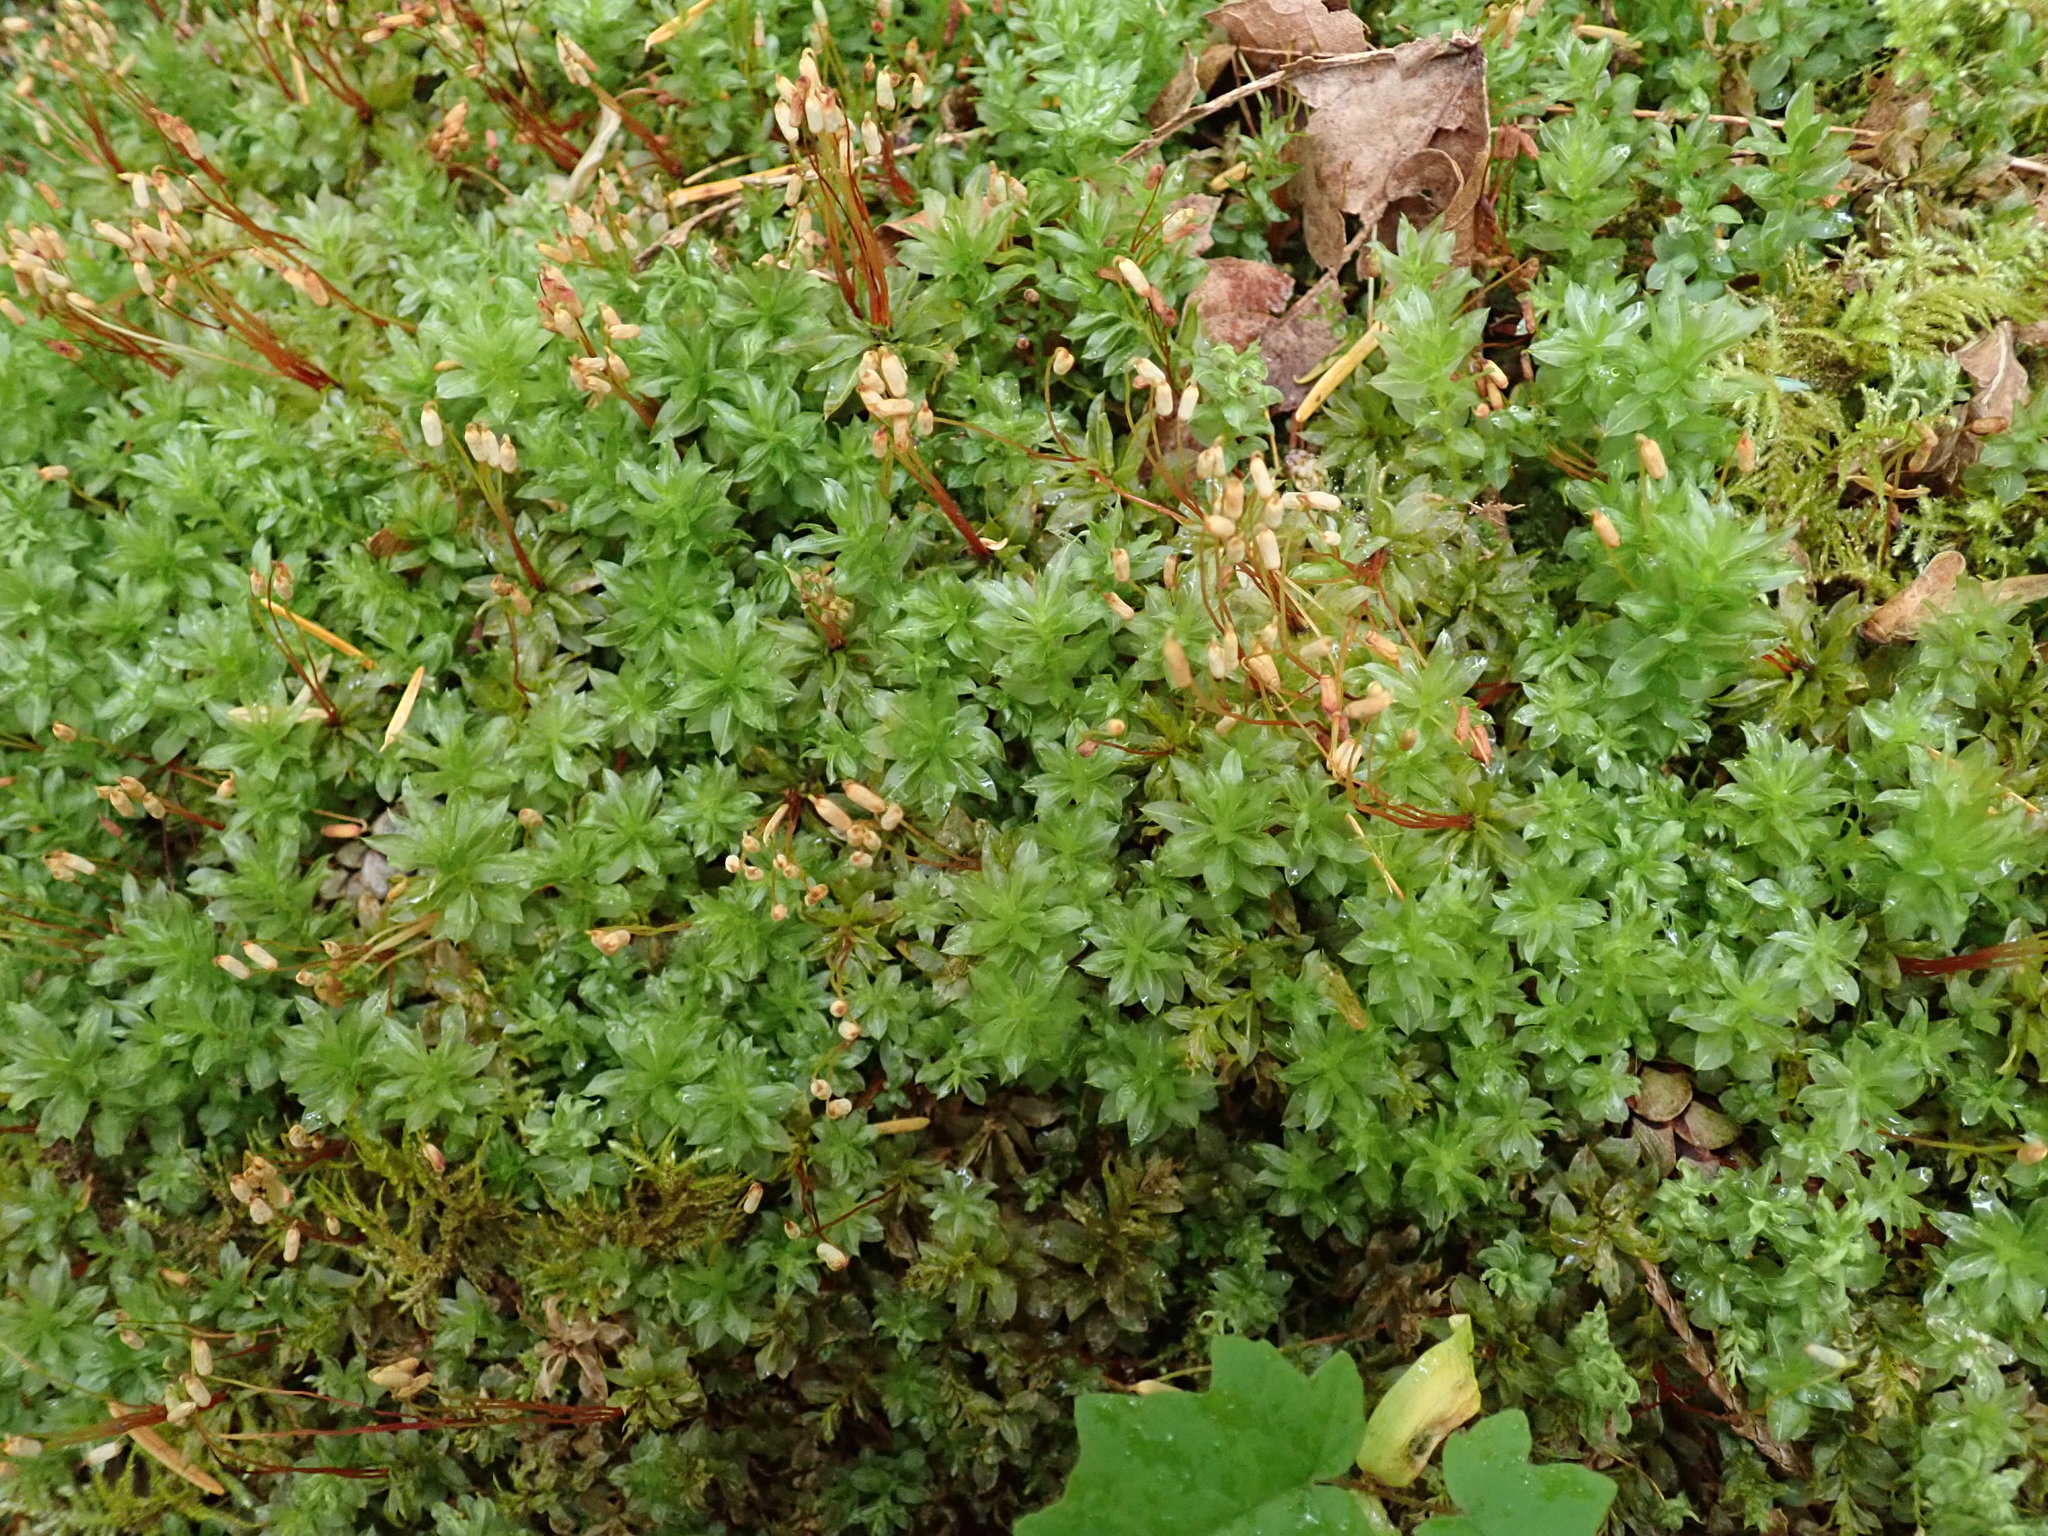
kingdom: Plantae
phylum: Bryophyta
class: Bryopsida
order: Bryales
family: Mniaceae
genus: Plagiomnium
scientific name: Plagiomnium insigne
